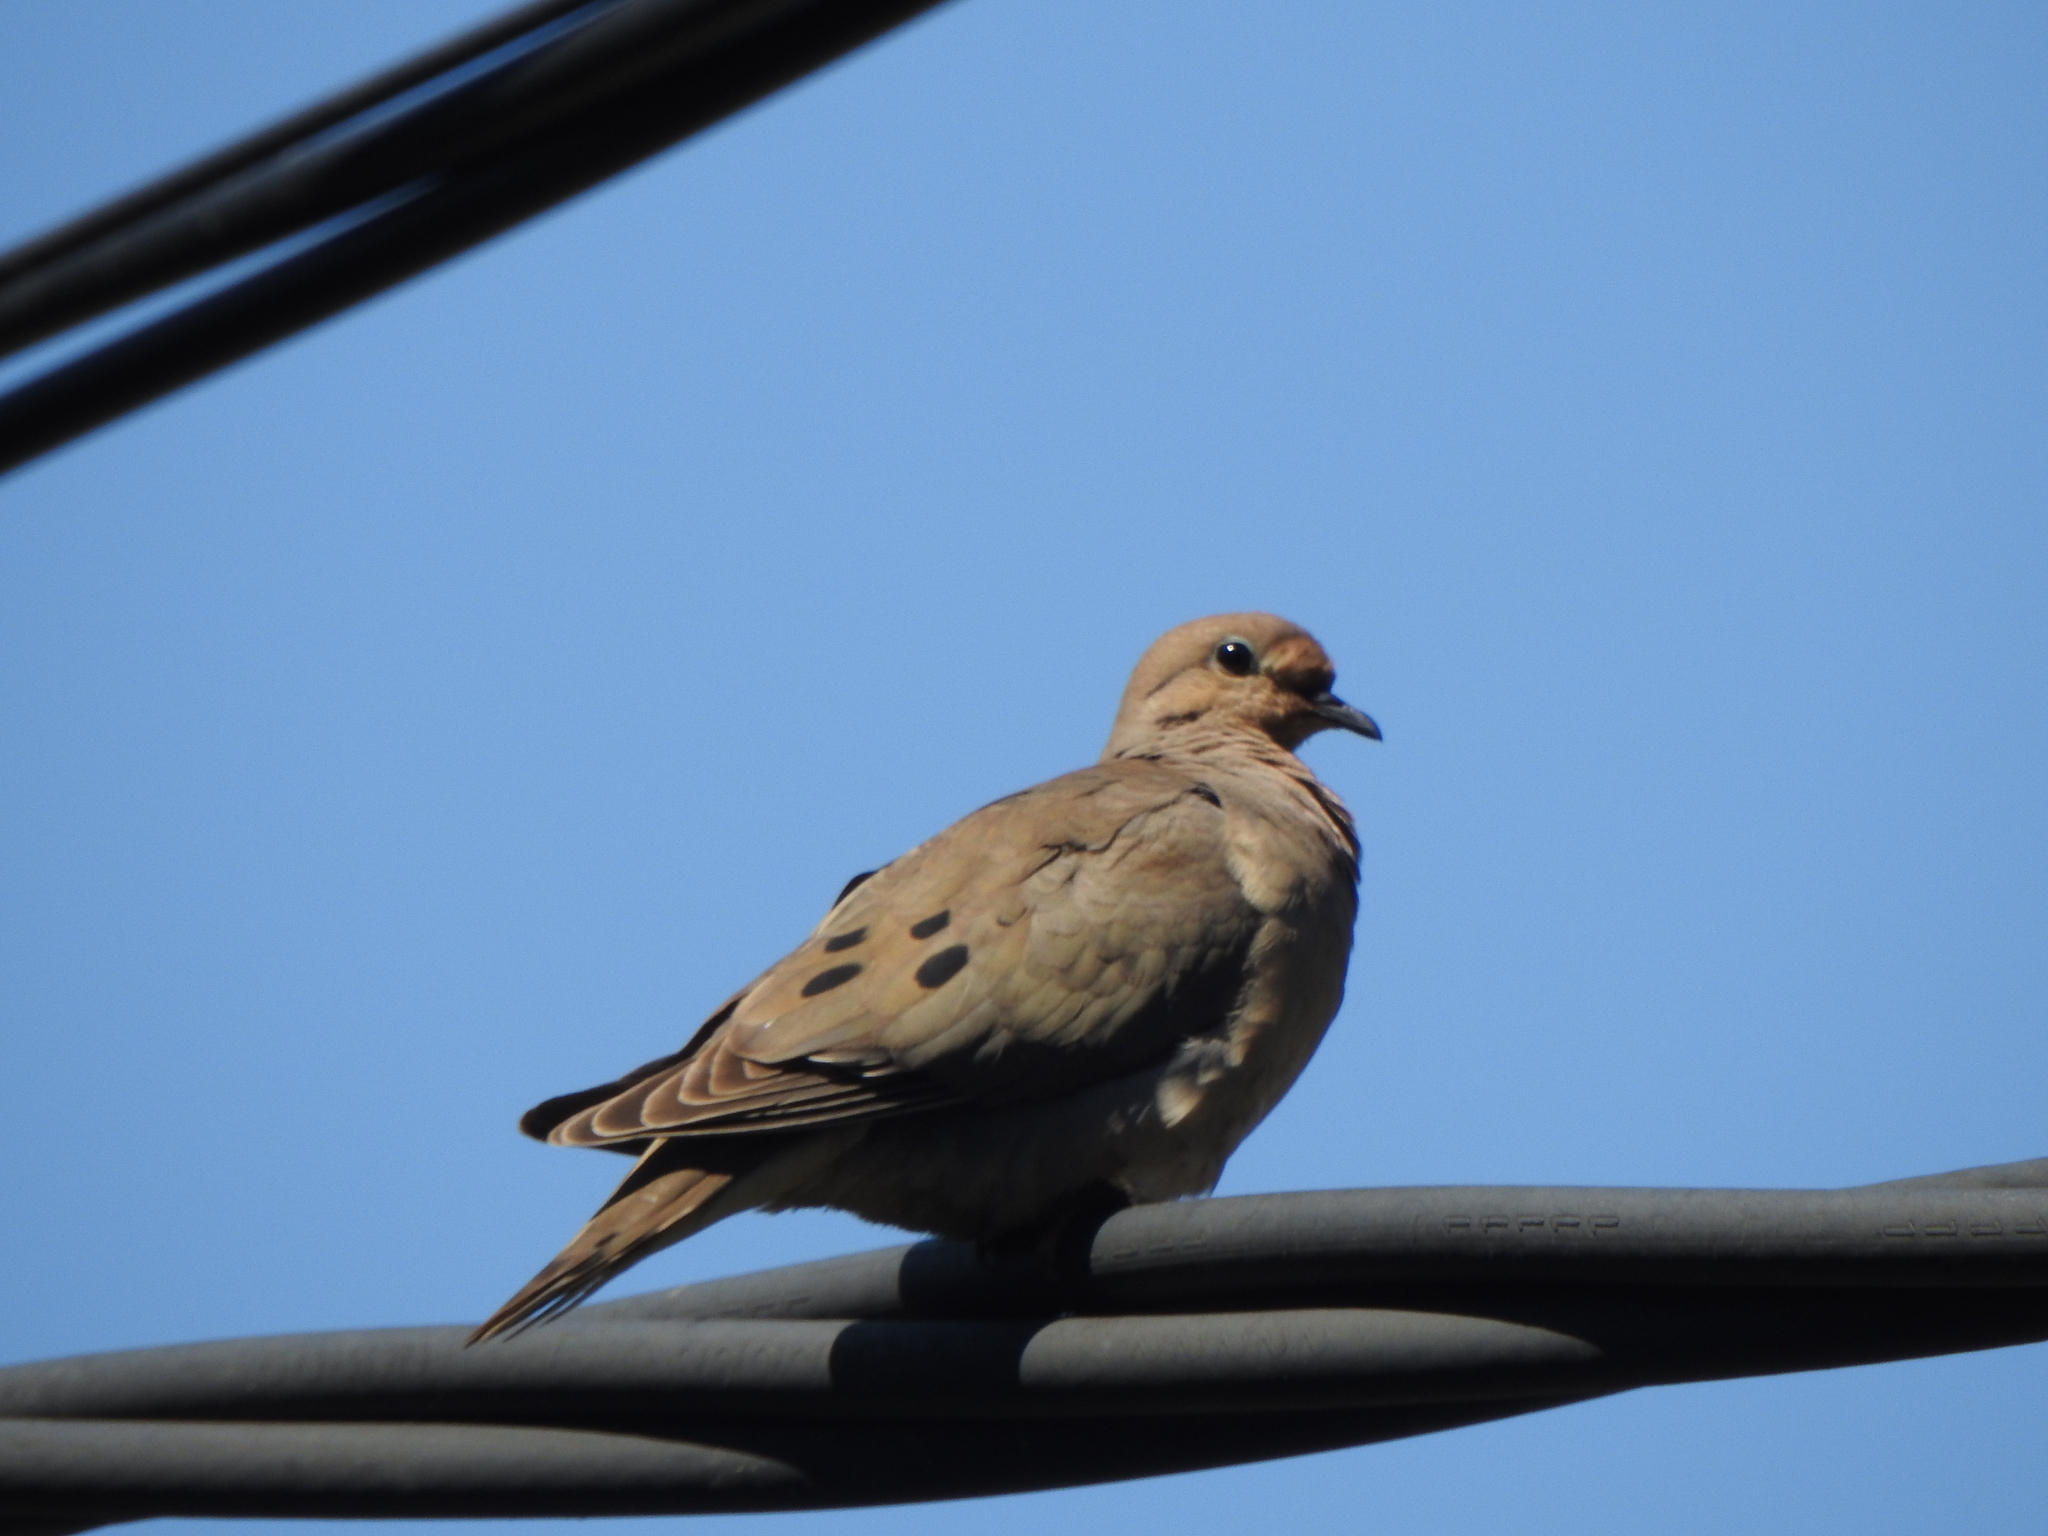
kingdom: Animalia
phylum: Chordata
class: Aves
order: Columbiformes
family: Columbidae
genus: Zenaida
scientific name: Zenaida auriculata
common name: Eared dove
